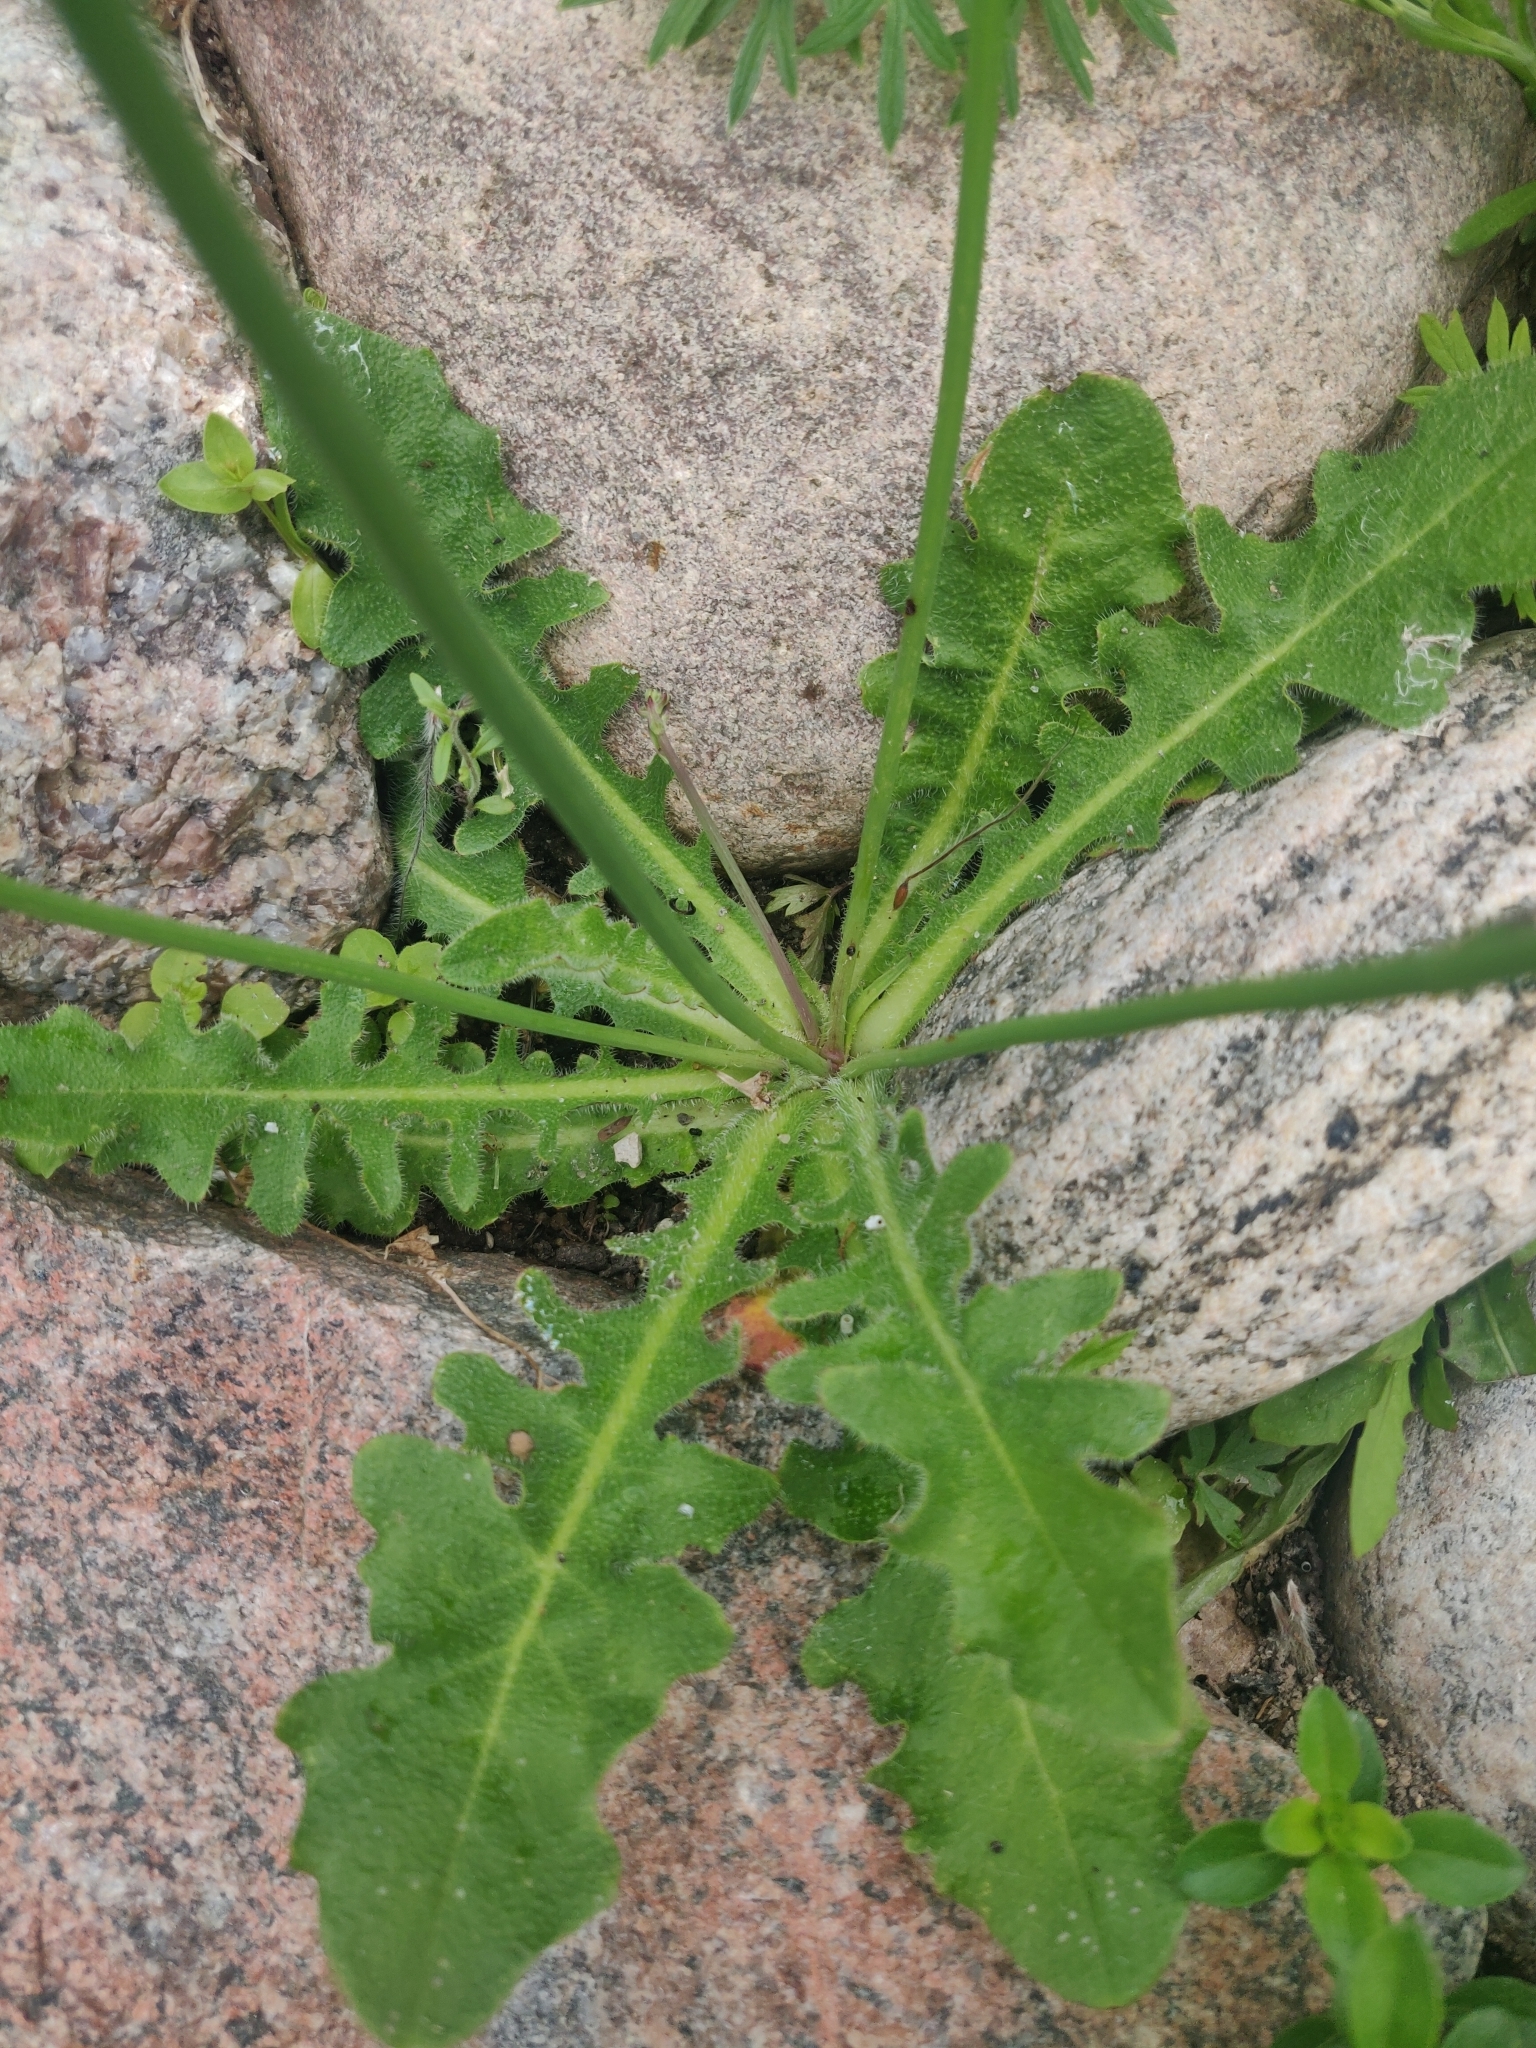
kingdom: Plantae
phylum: Tracheophyta
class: Magnoliopsida
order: Asterales
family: Asteraceae
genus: Hypochaeris
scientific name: Hypochaeris radicata
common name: Flatweed
